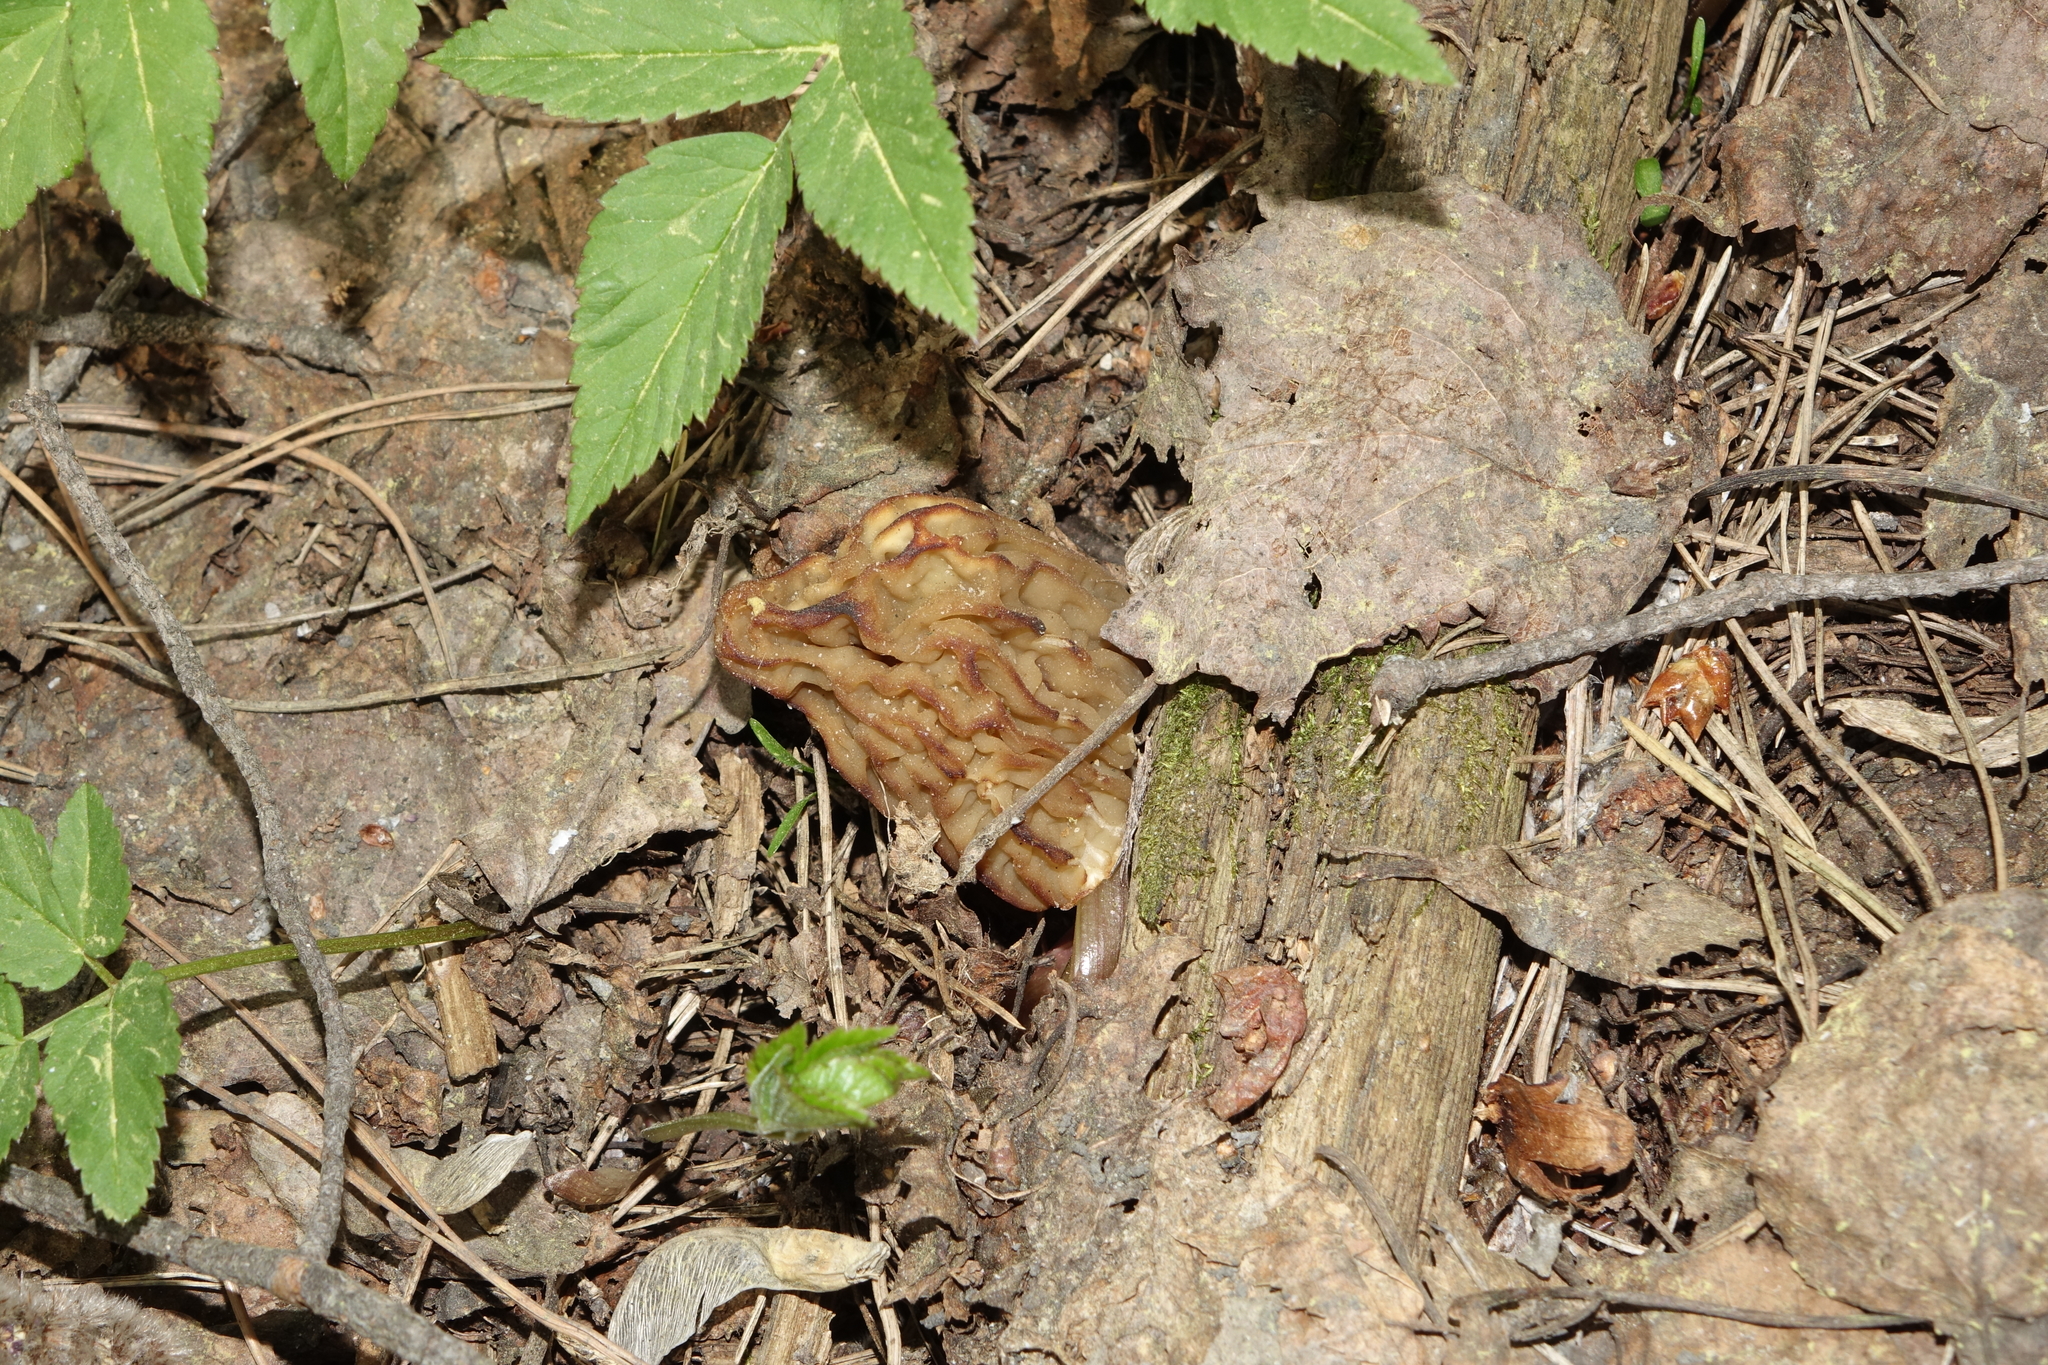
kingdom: Fungi
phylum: Ascomycota
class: Pezizomycetes
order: Pezizales
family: Morchellaceae
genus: Verpa
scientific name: Verpa bohemica
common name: Wrinkled thimble morel
